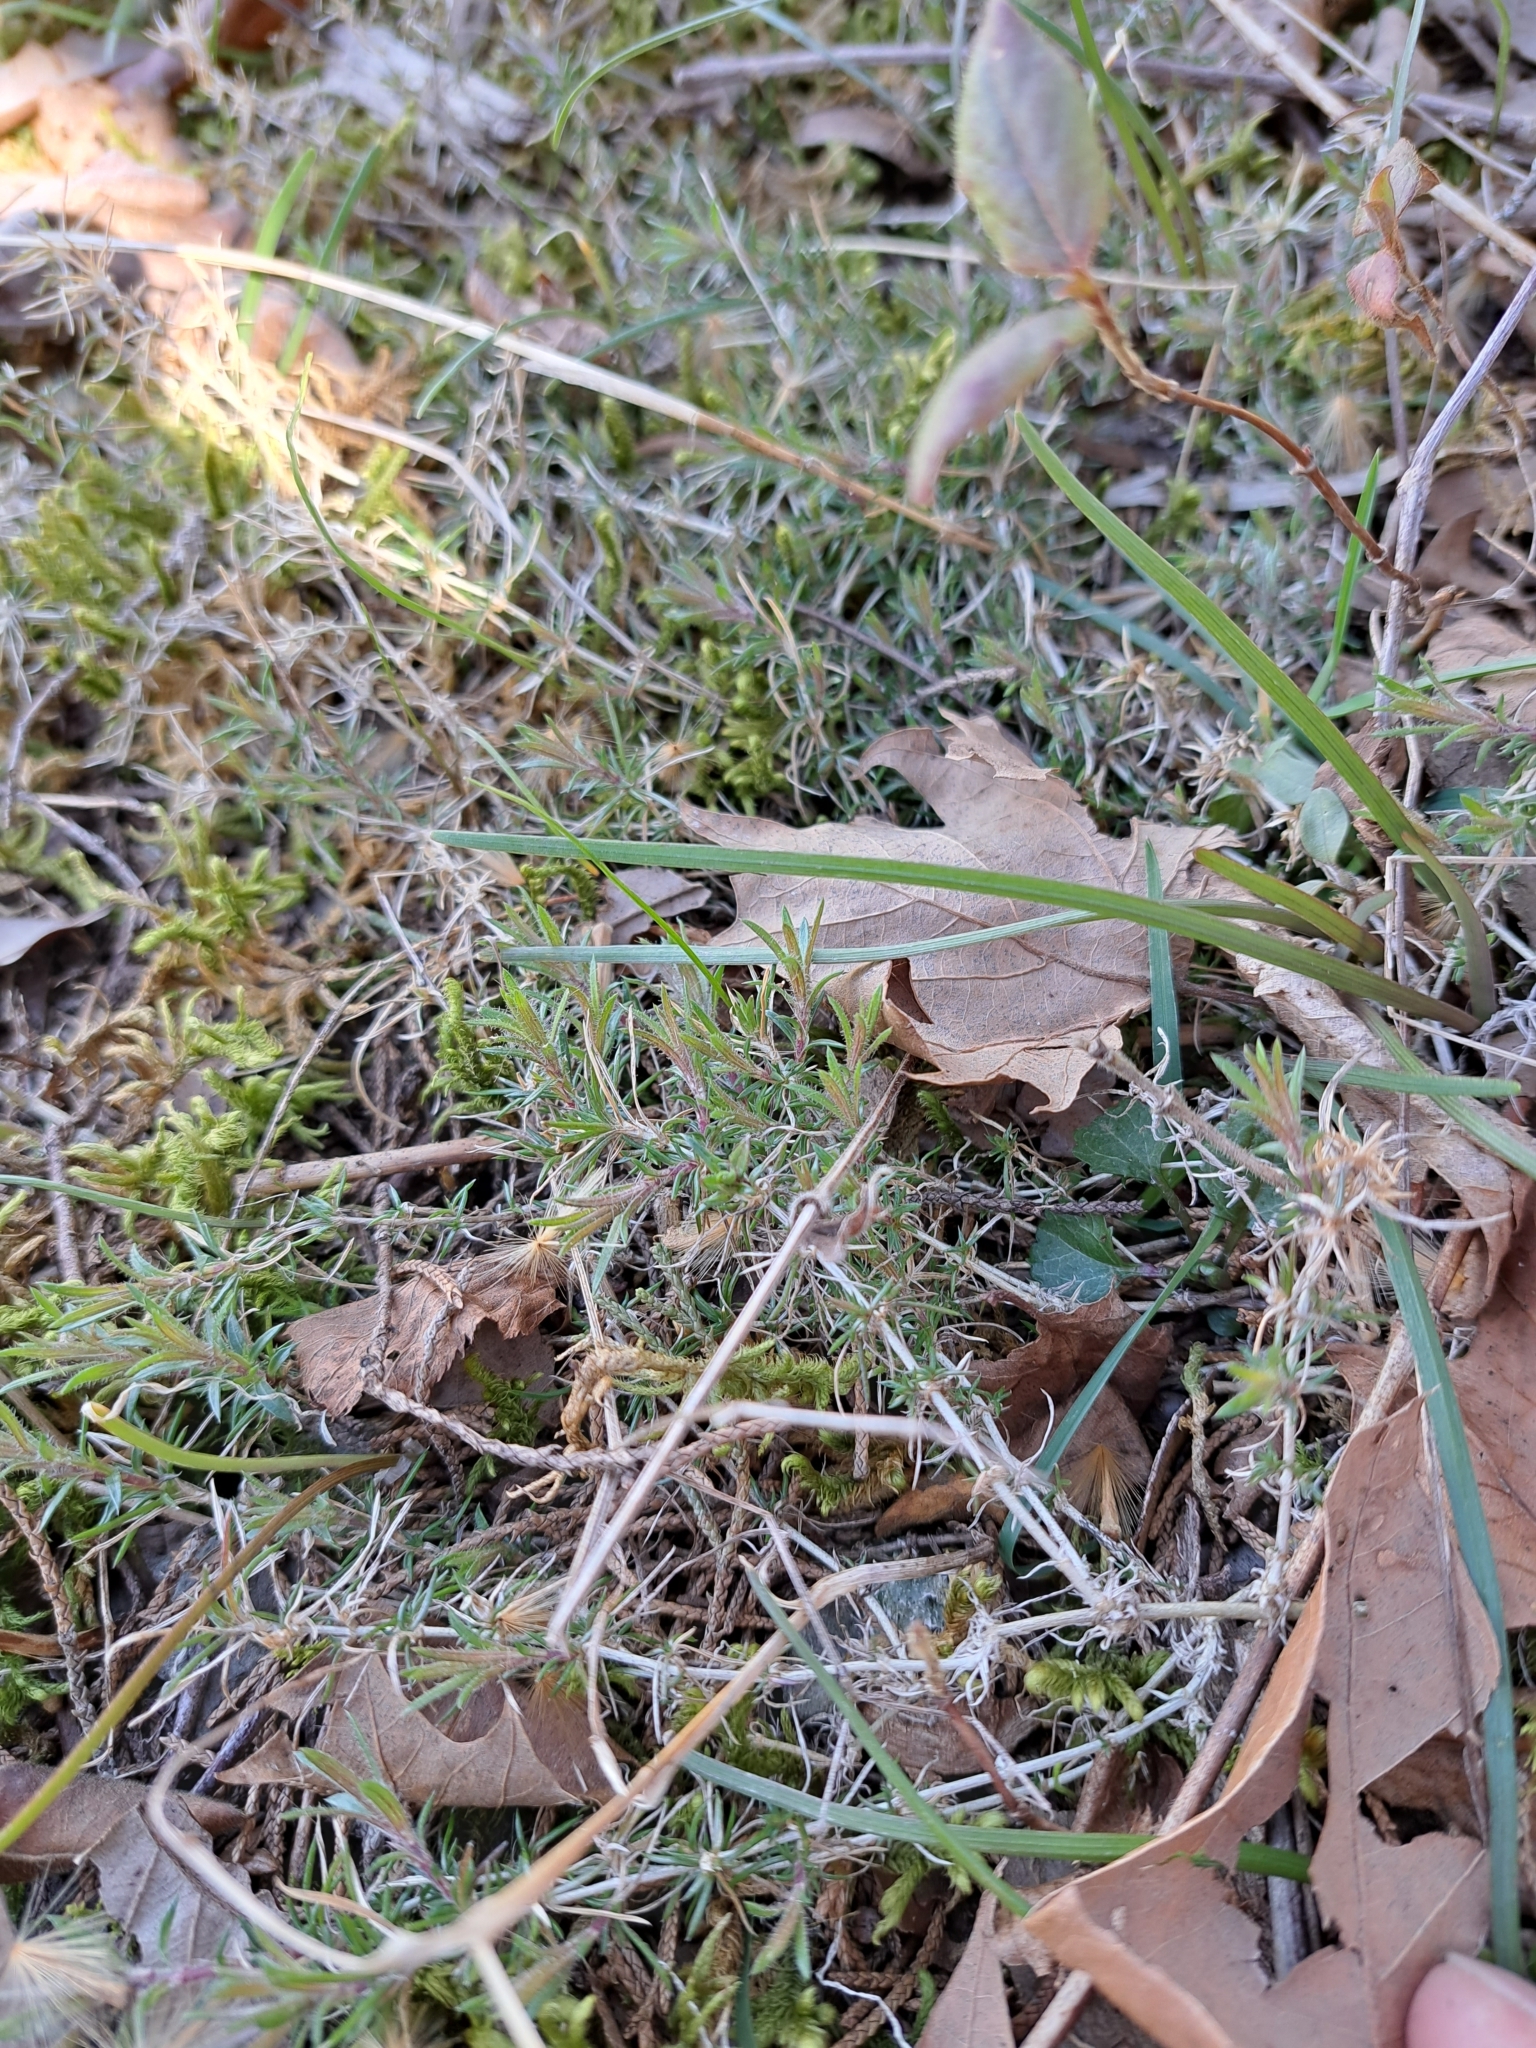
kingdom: Plantae
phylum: Tracheophyta
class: Magnoliopsida
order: Ericales
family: Polemoniaceae
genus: Phlox
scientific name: Phlox subulata
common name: Moss phlox
